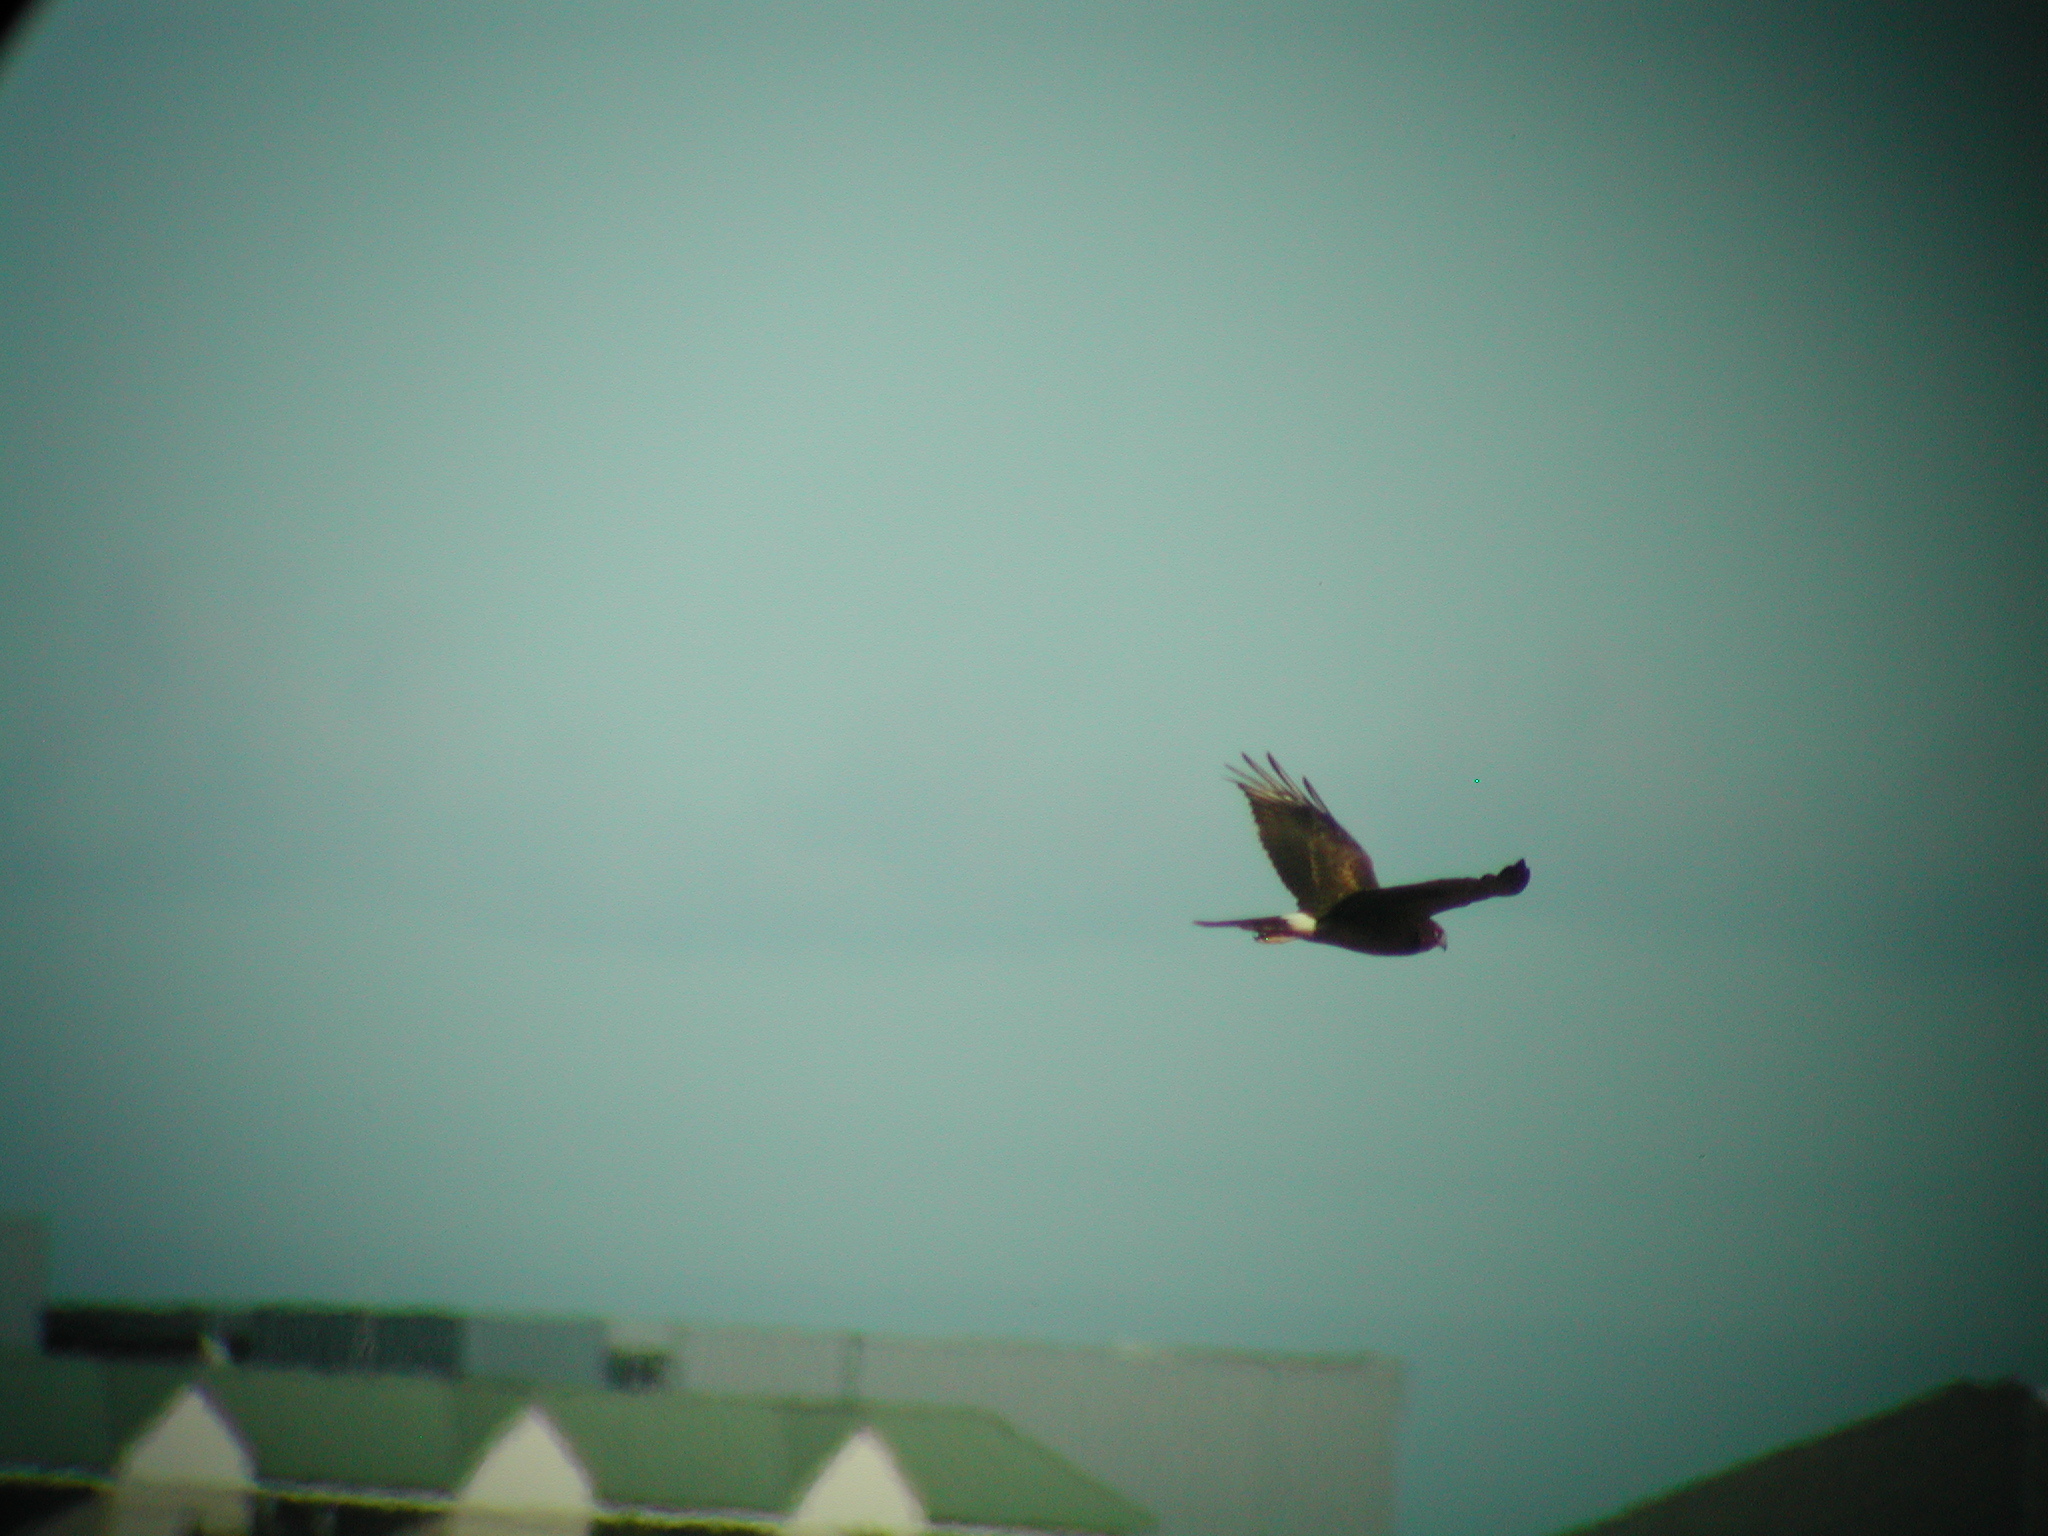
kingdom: Animalia
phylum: Chordata
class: Aves
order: Accipitriformes
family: Accipitridae
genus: Circus
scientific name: Circus cyaneus
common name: Hen harrier
